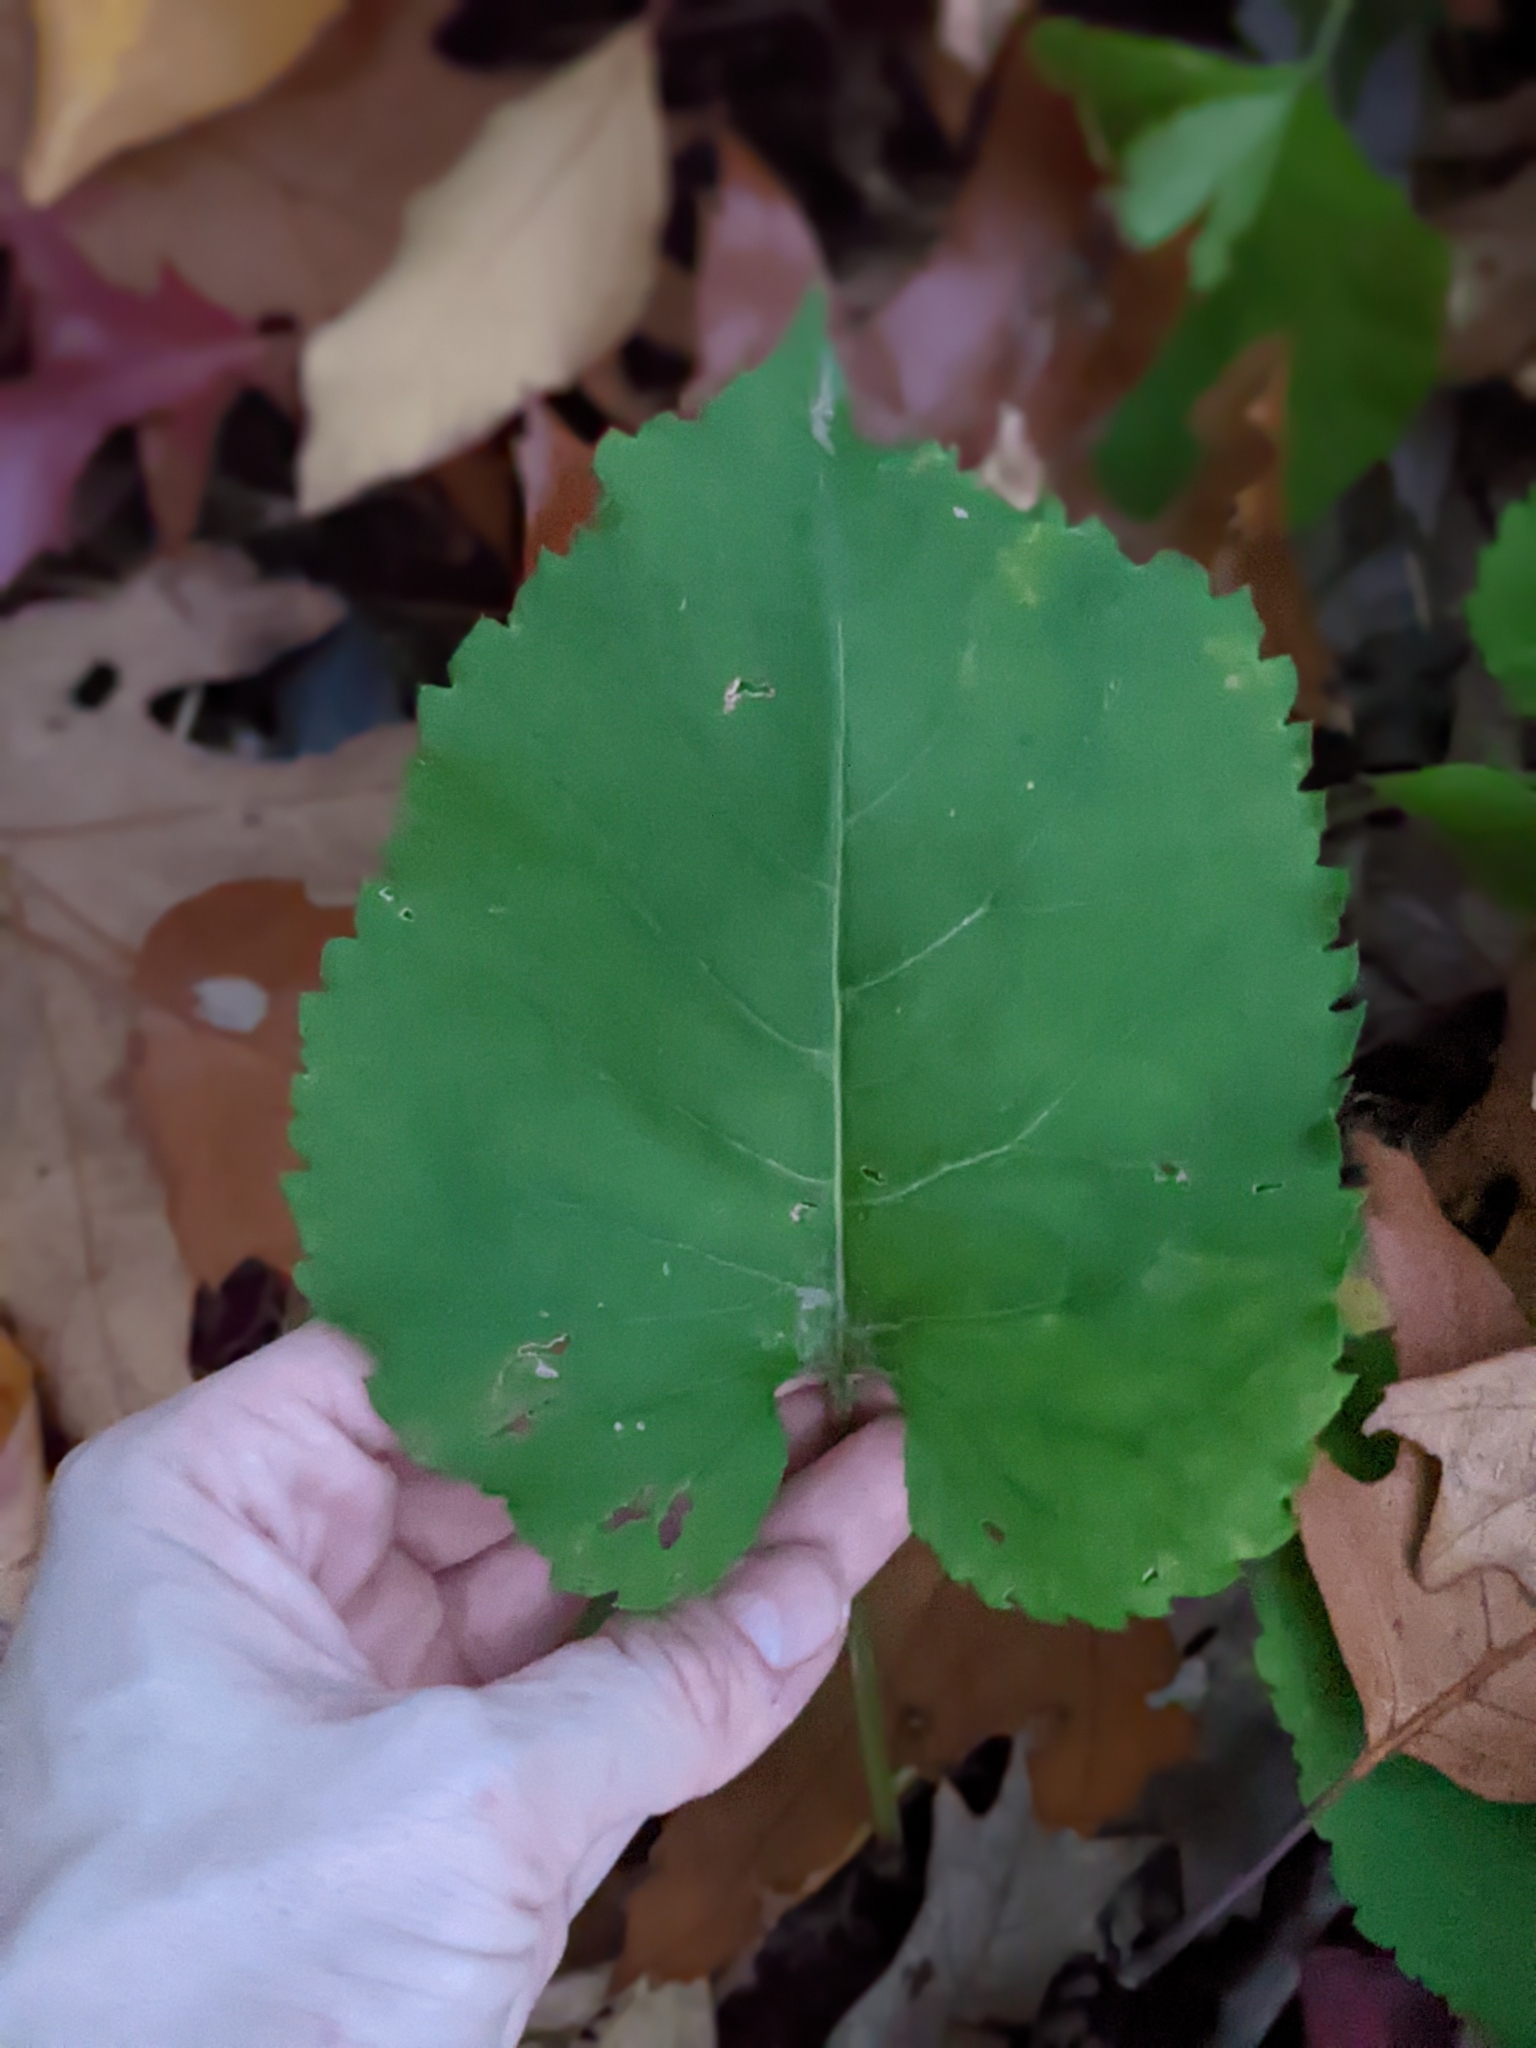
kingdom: Plantae
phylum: Tracheophyta
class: Magnoliopsida
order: Asterales
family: Asteraceae
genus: Eurybia
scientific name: Eurybia macrophylla
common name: Big-leaved aster
